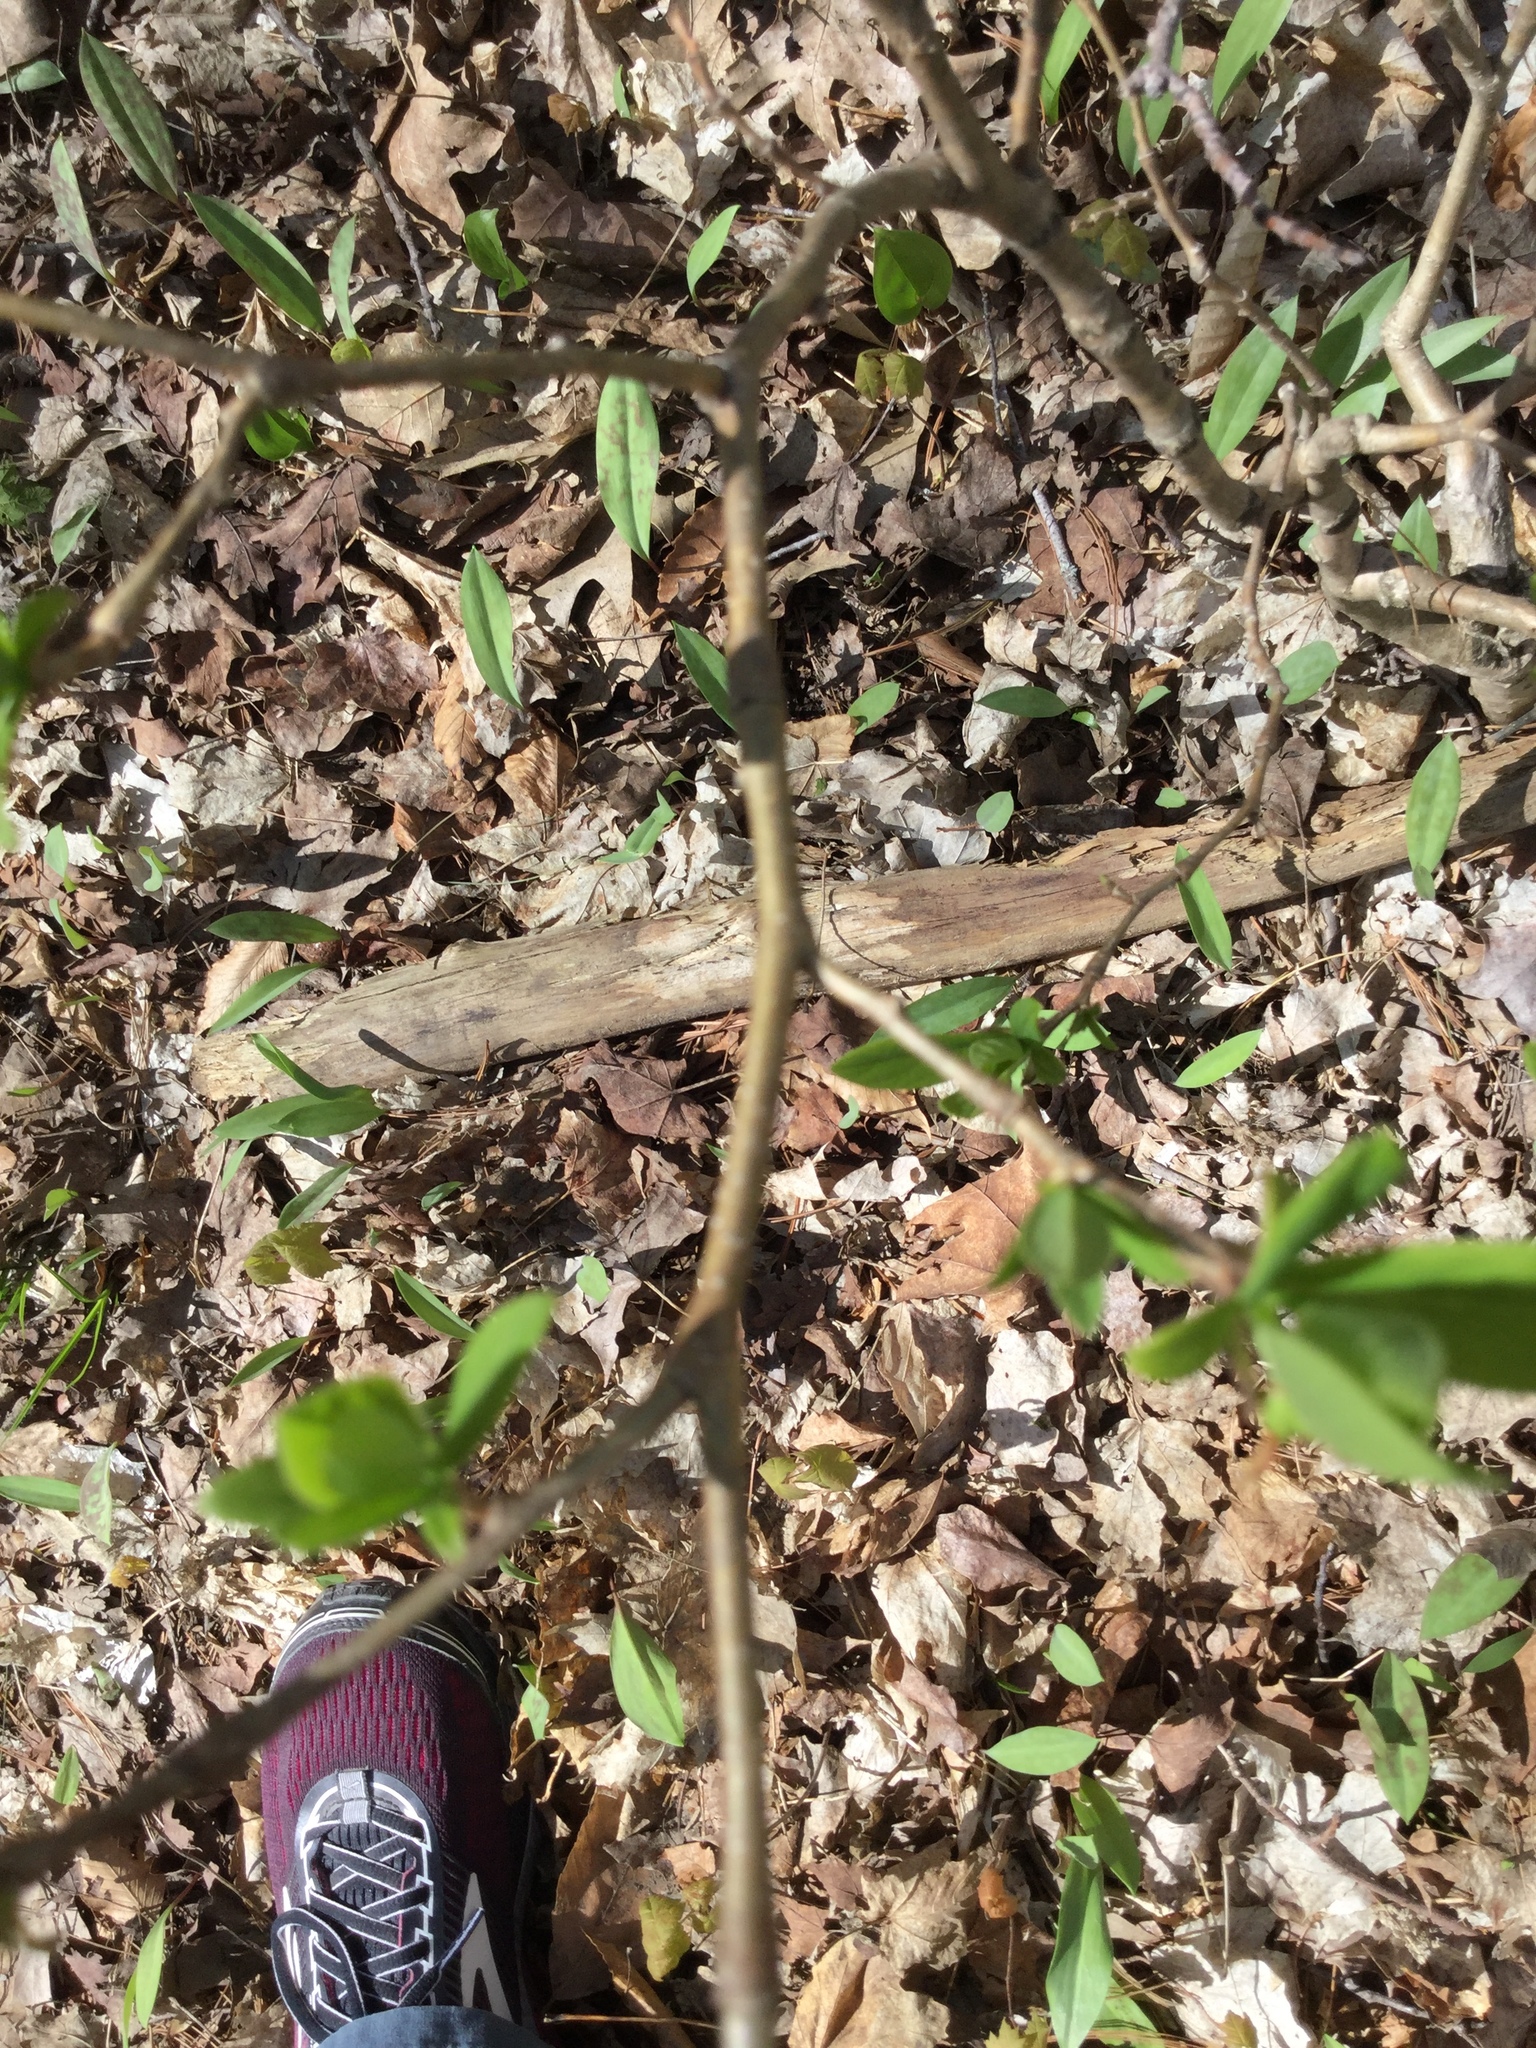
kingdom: Plantae
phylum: Tracheophyta
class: Magnoliopsida
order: Malvales
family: Thymelaeaceae
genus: Dirca
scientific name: Dirca palustris
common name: Leatherwood
